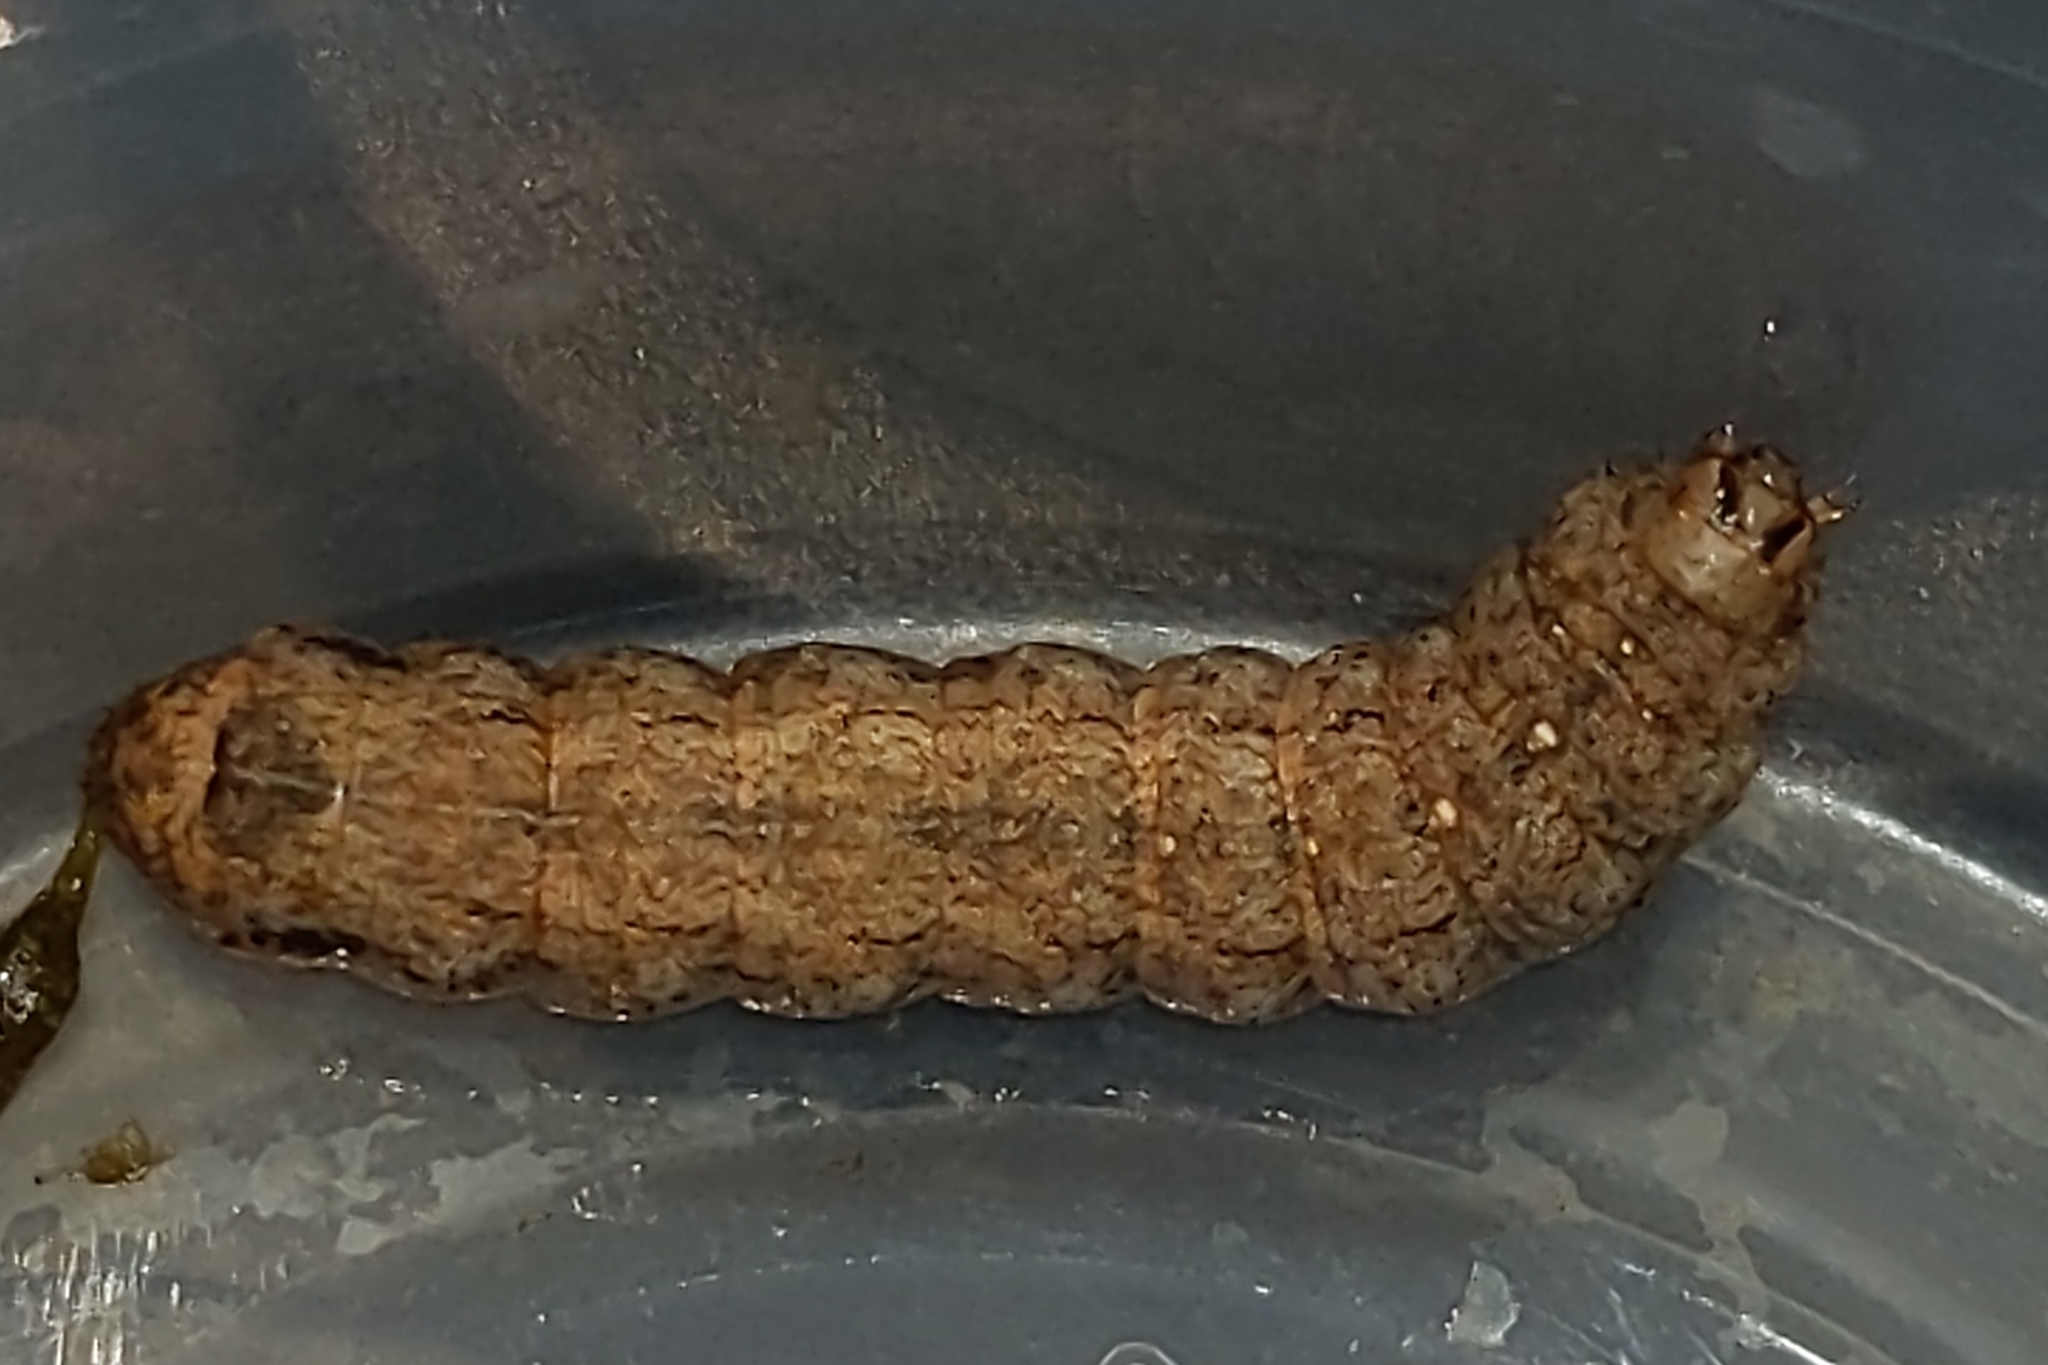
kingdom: Animalia
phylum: Arthropoda
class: Insecta
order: Lepidoptera
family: Noctuidae
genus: Peridroma
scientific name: Peridroma saucia
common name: Pearly underwing
